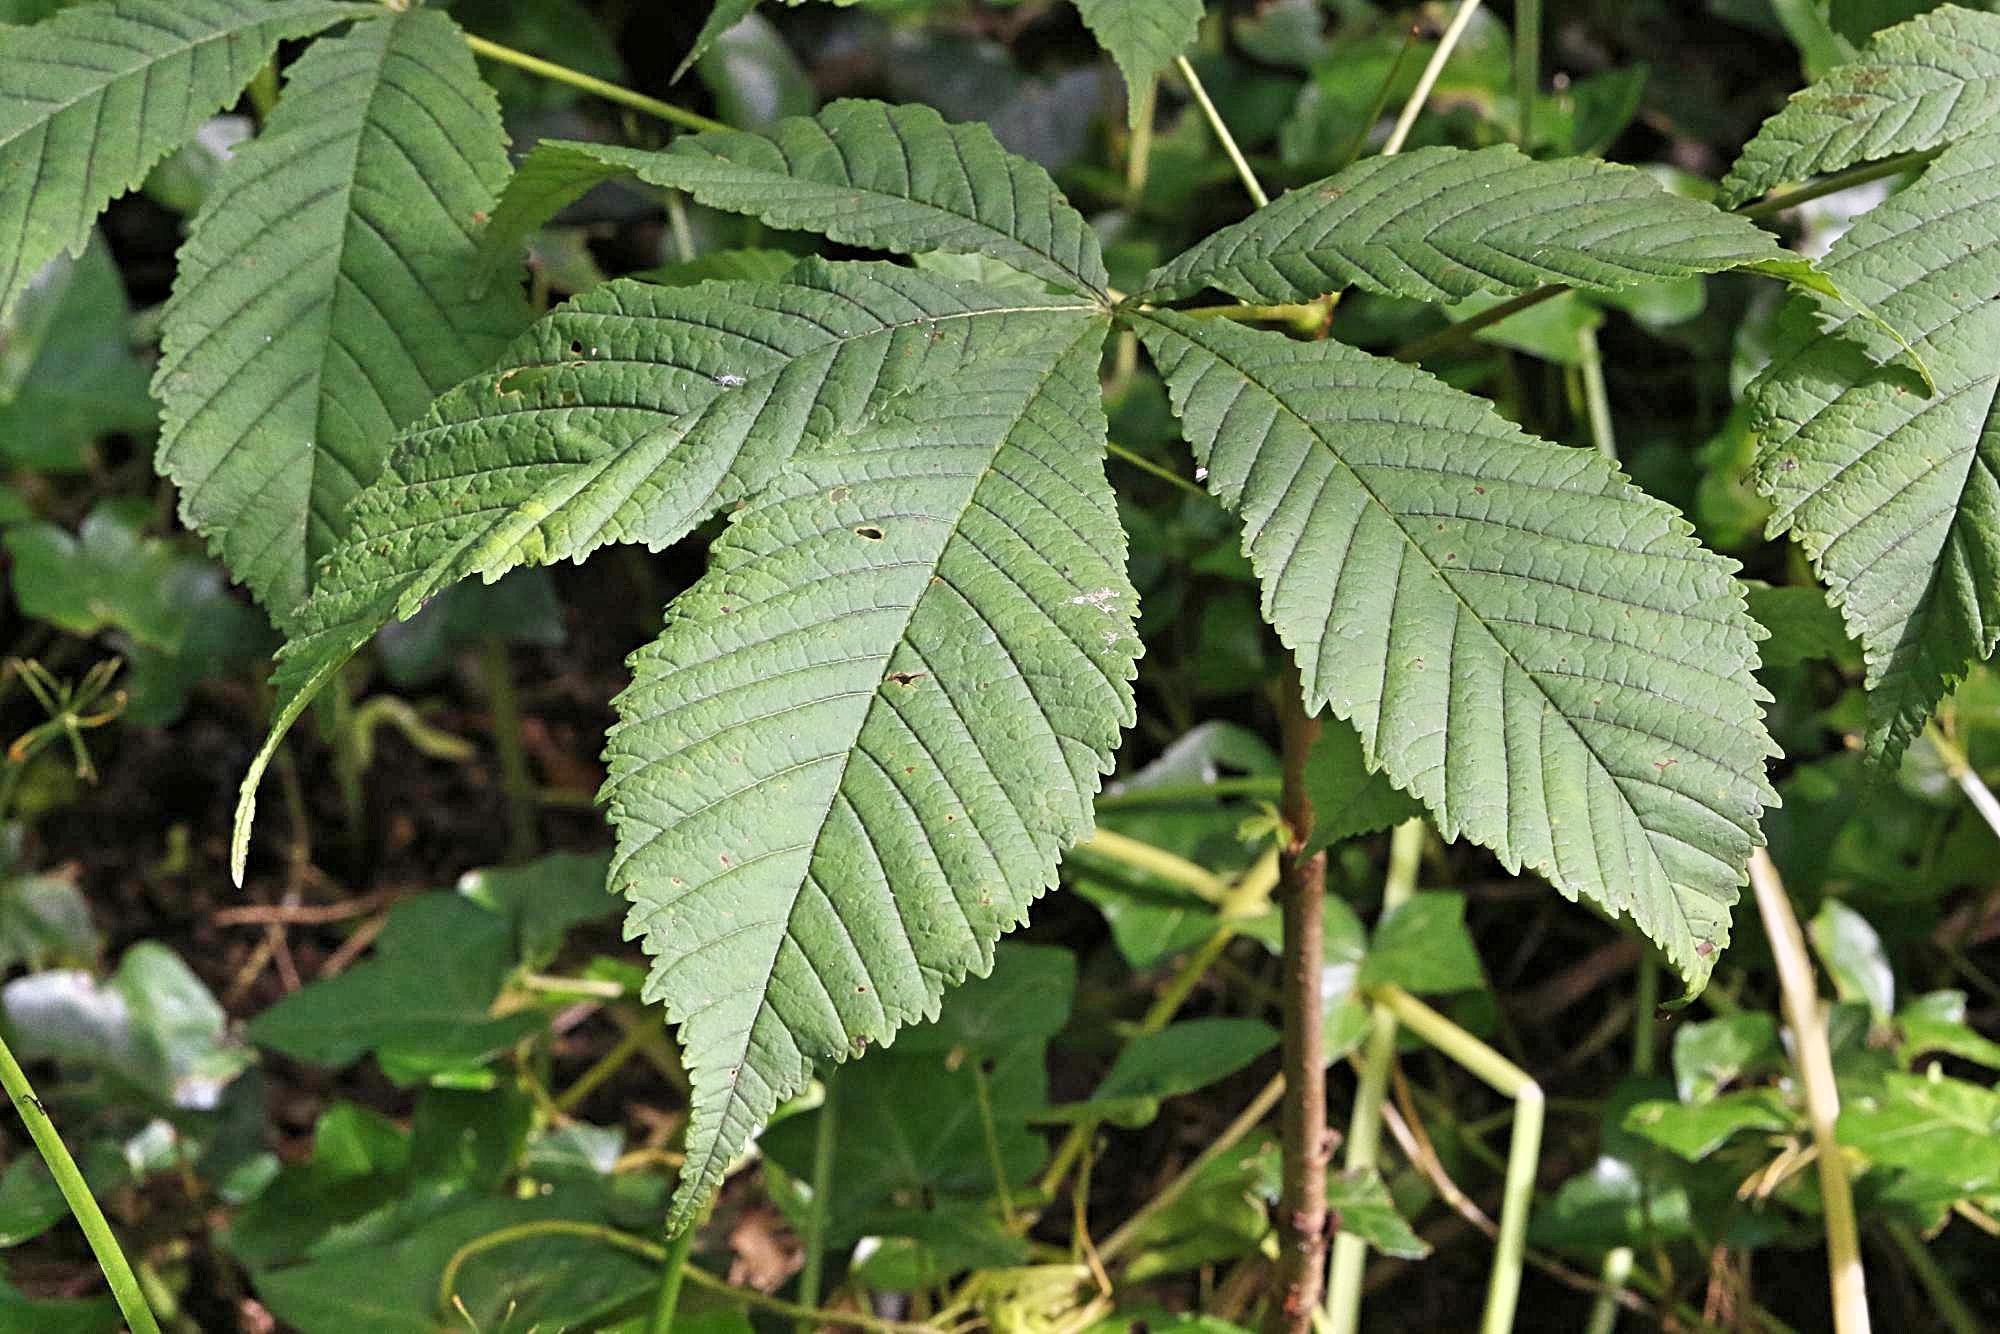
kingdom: Plantae
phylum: Tracheophyta
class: Magnoliopsida
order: Sapindales
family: Sapindaceae
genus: Aesculus
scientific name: Aesculus hippocastanum
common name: Horse-chestnut
